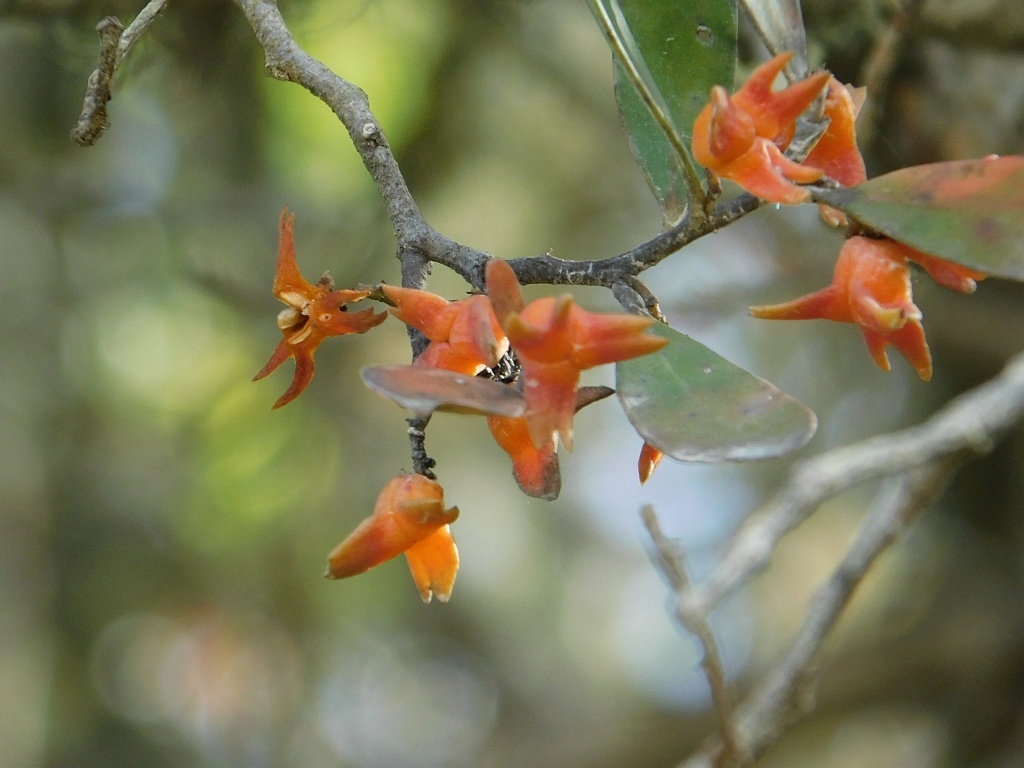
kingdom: Plantae
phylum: Tracheophyta
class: Magnoliopsida
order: Celastrales
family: Celastraceae
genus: Pterocelastrus
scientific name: Pterocelastrus tricuspidatus
